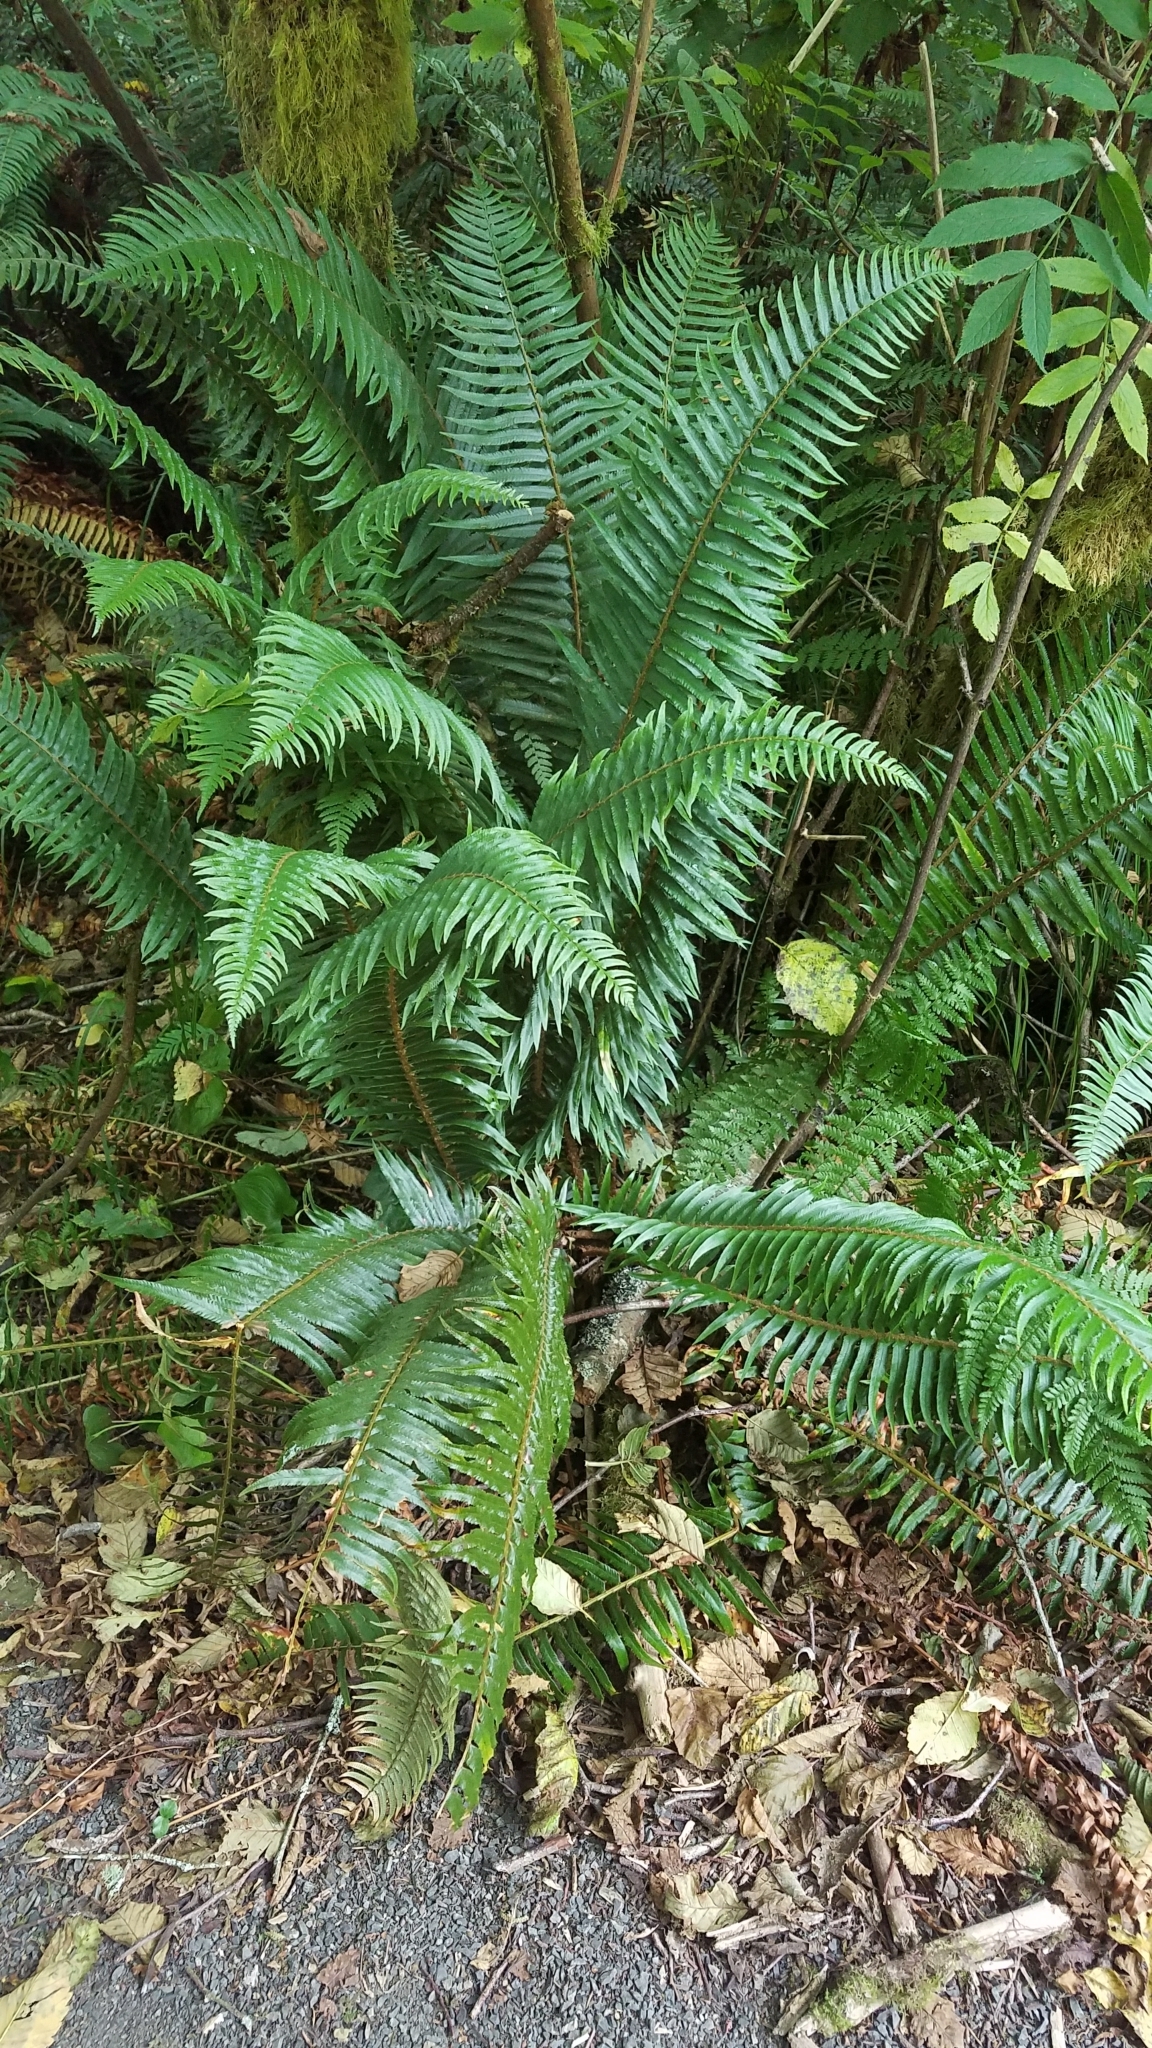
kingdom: Plantae
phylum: Tracheophyta
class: Polypodiopsida
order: Polypodiales
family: Dryopteridaceae
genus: Polystichum
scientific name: Polystichum munitum
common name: Western sword-fern
